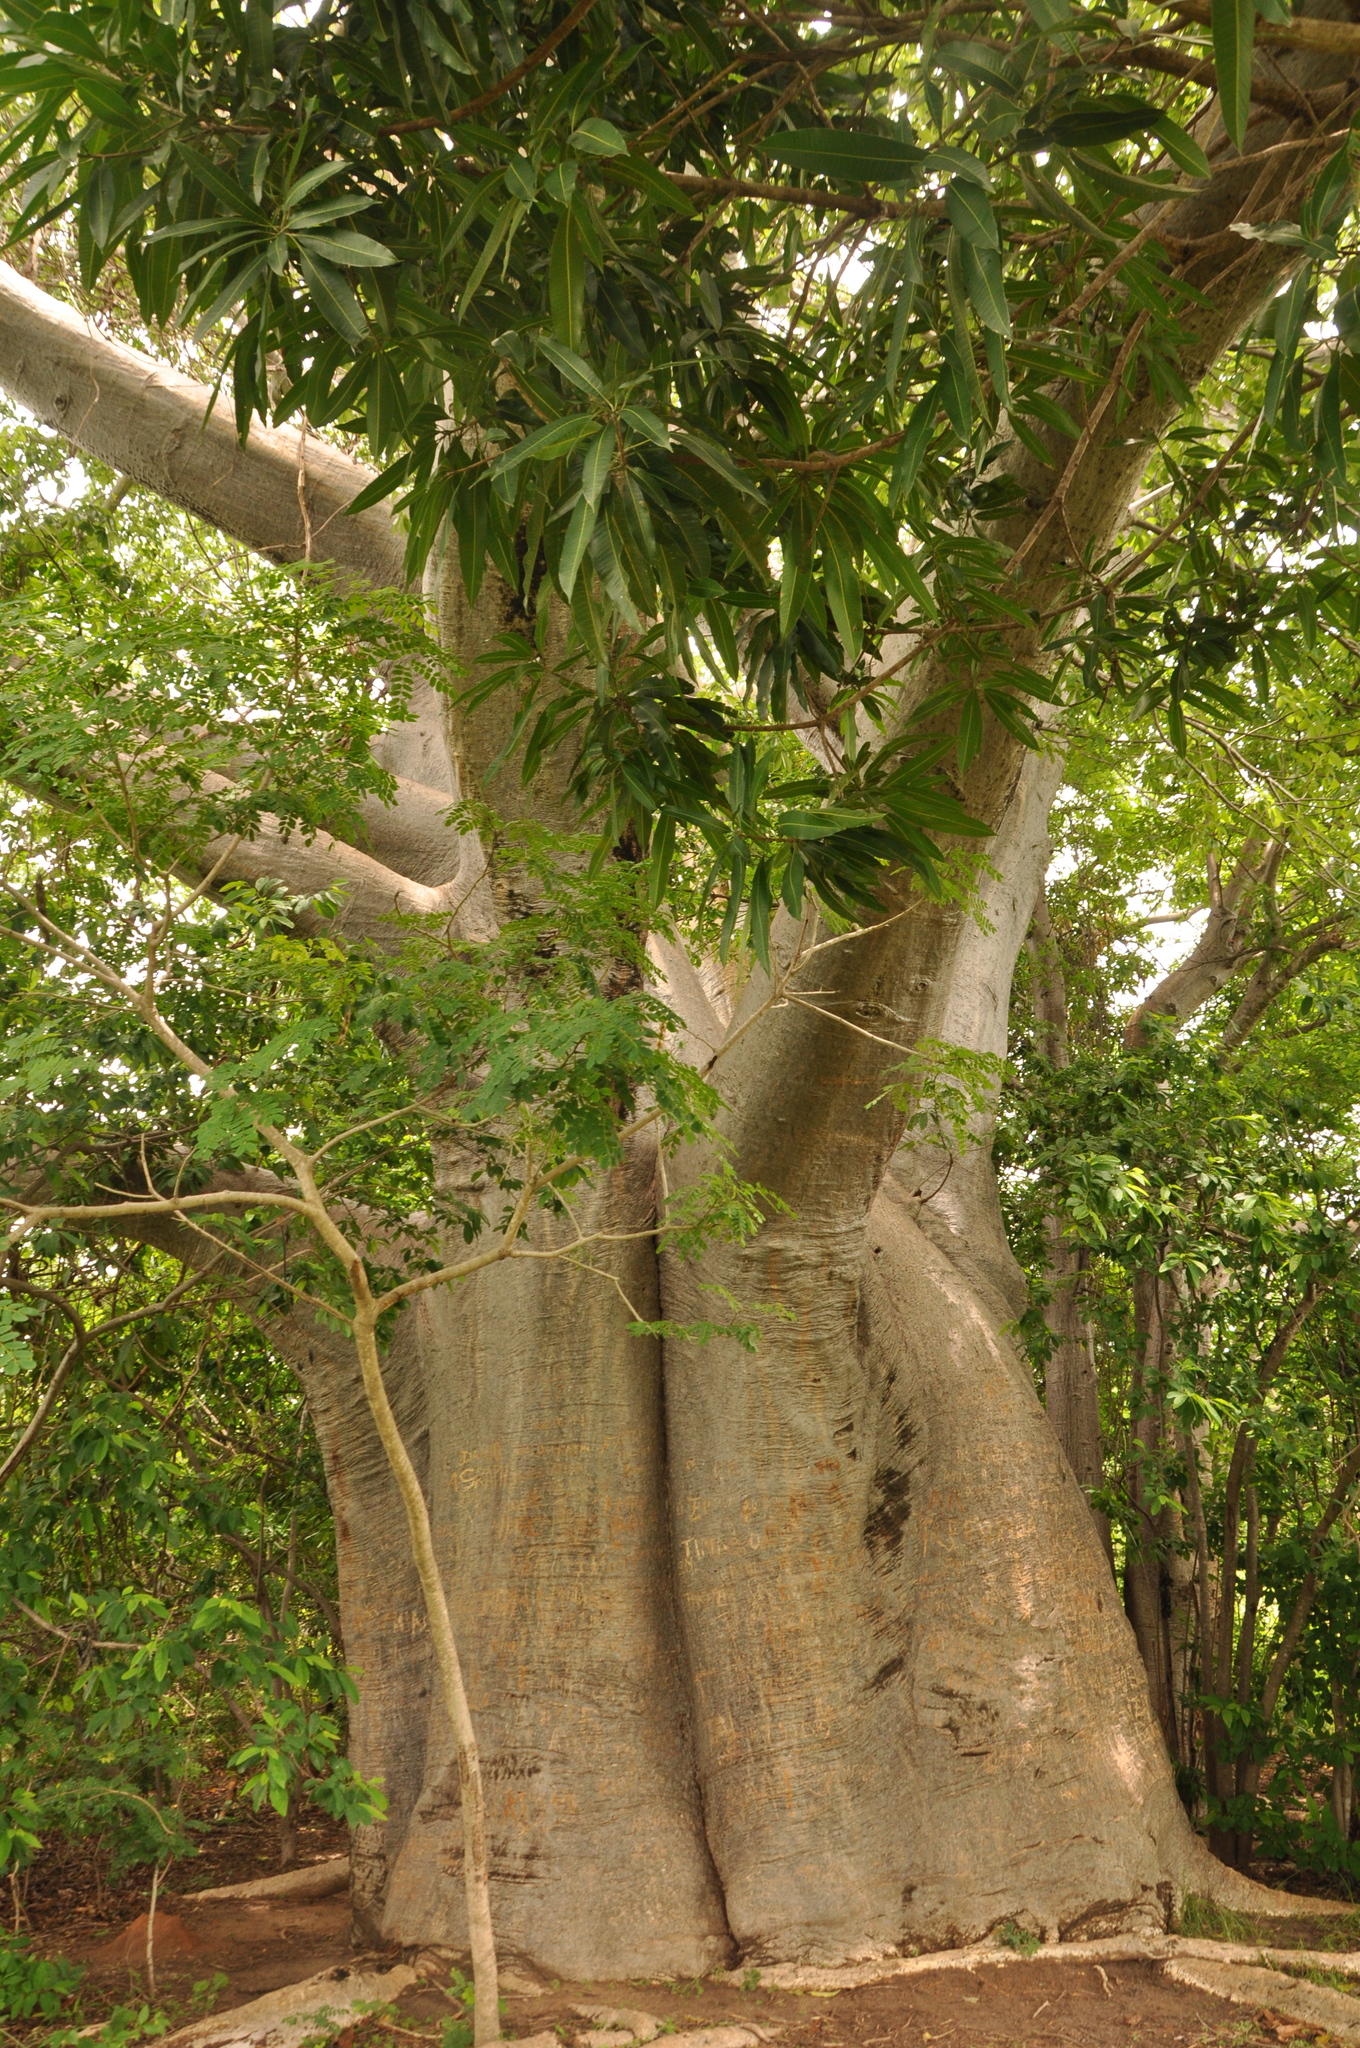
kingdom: Plantae
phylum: Tracheophyta
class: Magnoliopsida
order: Malvales
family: Malvaceae
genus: Adansonia
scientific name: Adansonia digitata
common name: Dead-rat-tree
